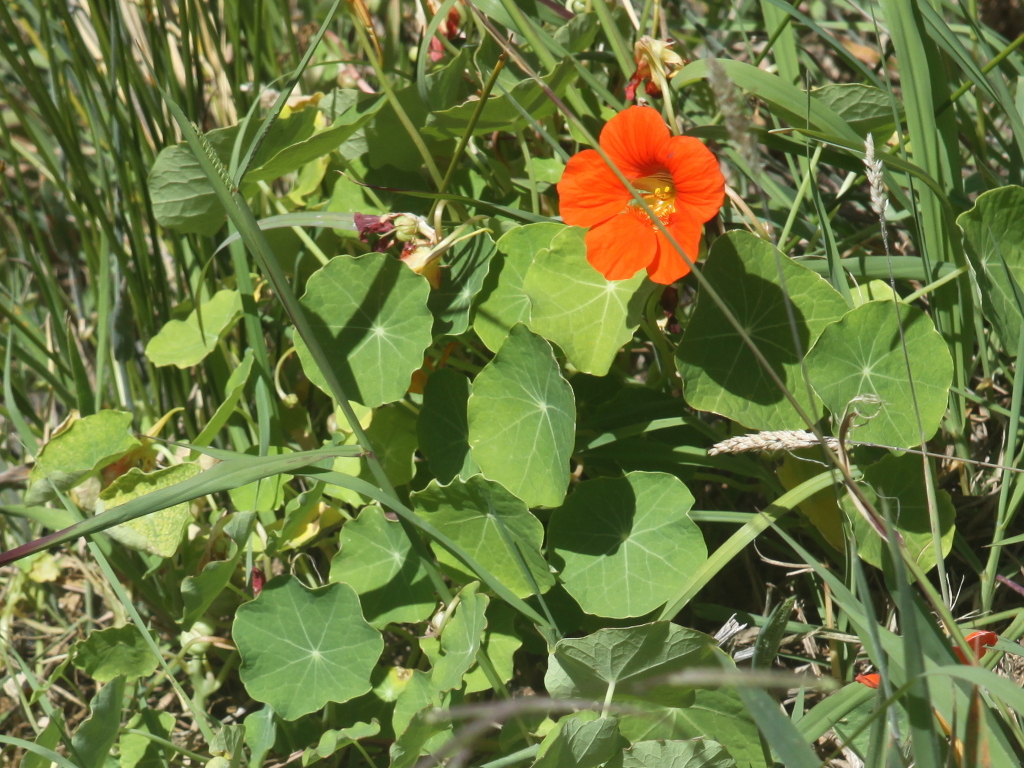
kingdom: Plantae
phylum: Tracheophyta
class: Magnoliopsida
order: Brassicales
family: Tropaeolaceae
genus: Tropaeolum
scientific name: Tropaeolum majus
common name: Nasturtium
